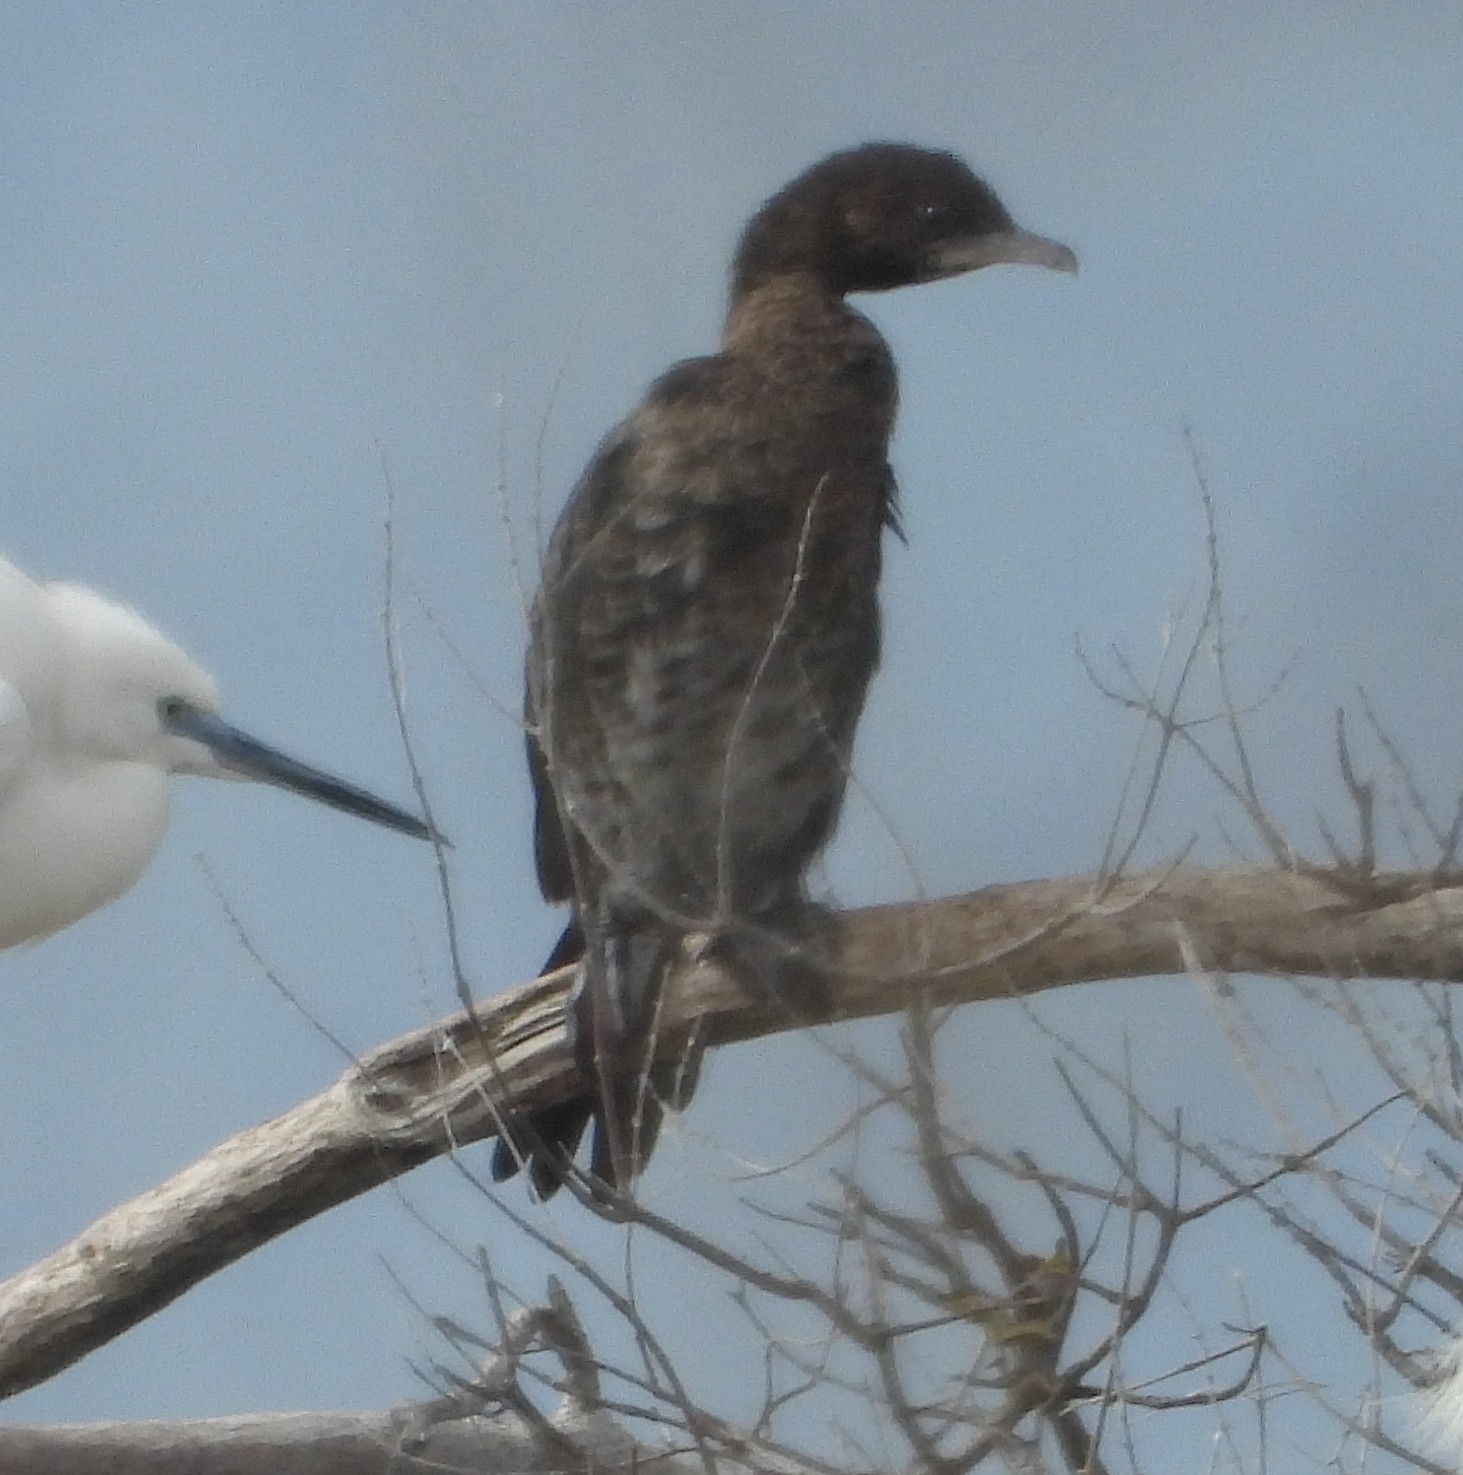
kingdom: Animalia
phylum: Chordata
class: Aves
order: Suliformes
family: Phalacrocoracidae
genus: Microcarbo
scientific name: Microcarbo pygmaeus
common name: Pygmy cormorant
